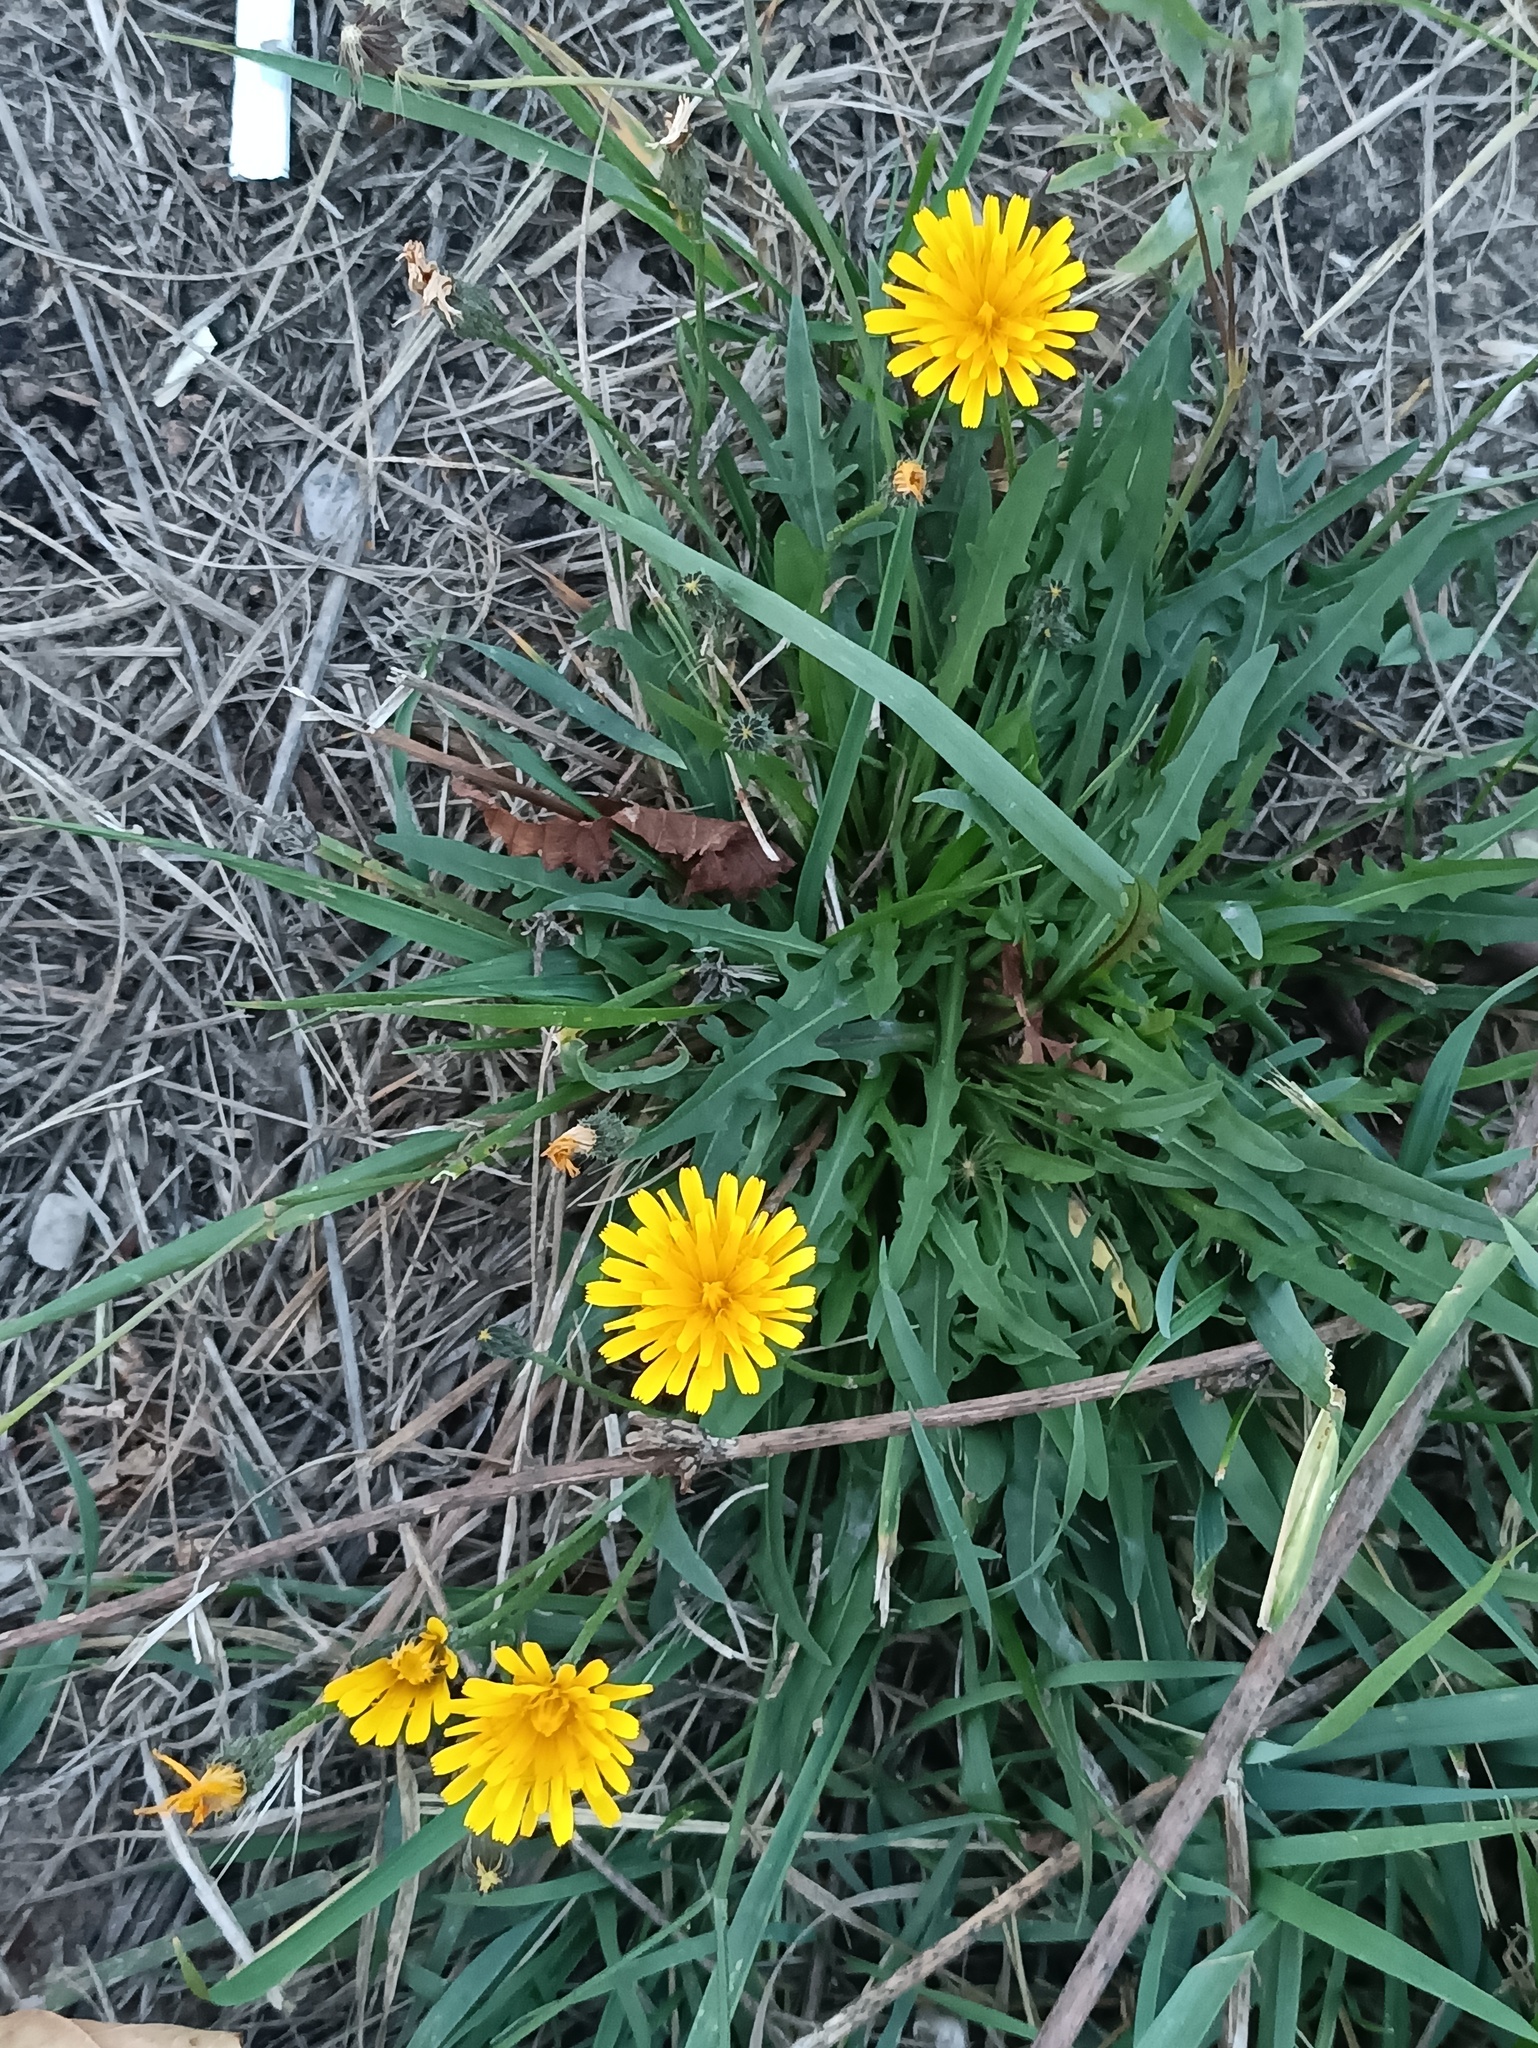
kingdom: Plantae
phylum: Tracheophyta
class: Magnoliopsida
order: Asterales
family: Asteraceae
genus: Scorzoneroides
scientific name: Scorzoneroides autumnalis
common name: Autumn hawkbit
